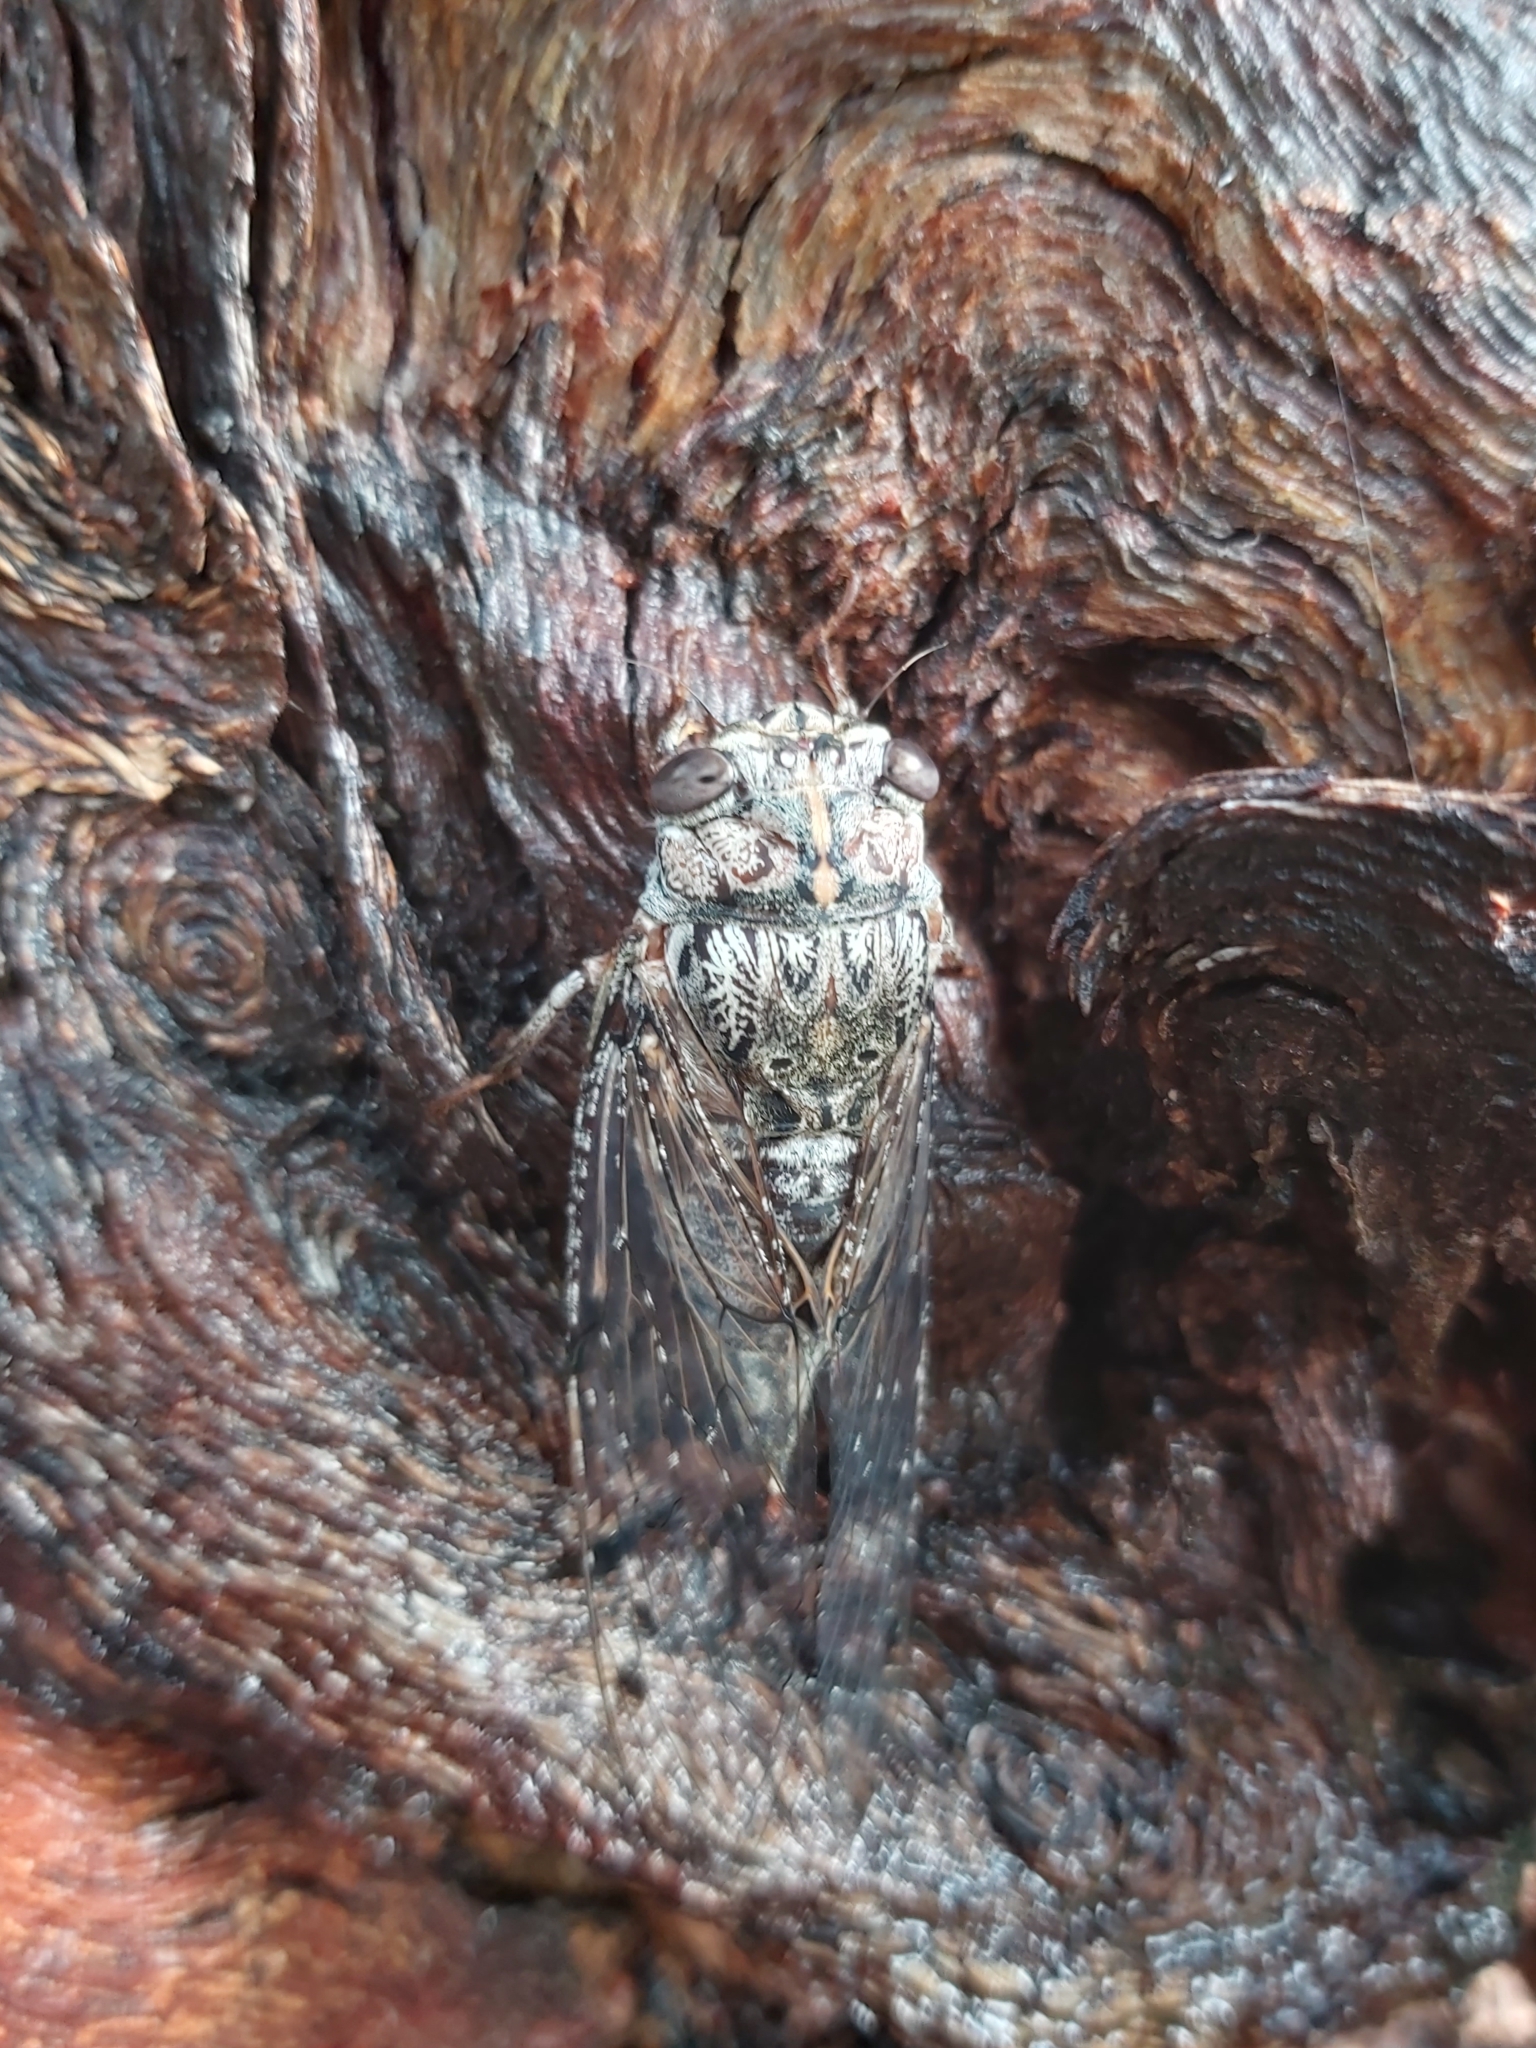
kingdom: Animalia
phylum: Arthropoda
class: Insecta
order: Hemiptera
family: Cicadidae
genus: Aleeta
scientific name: Aleeta curvicosta
